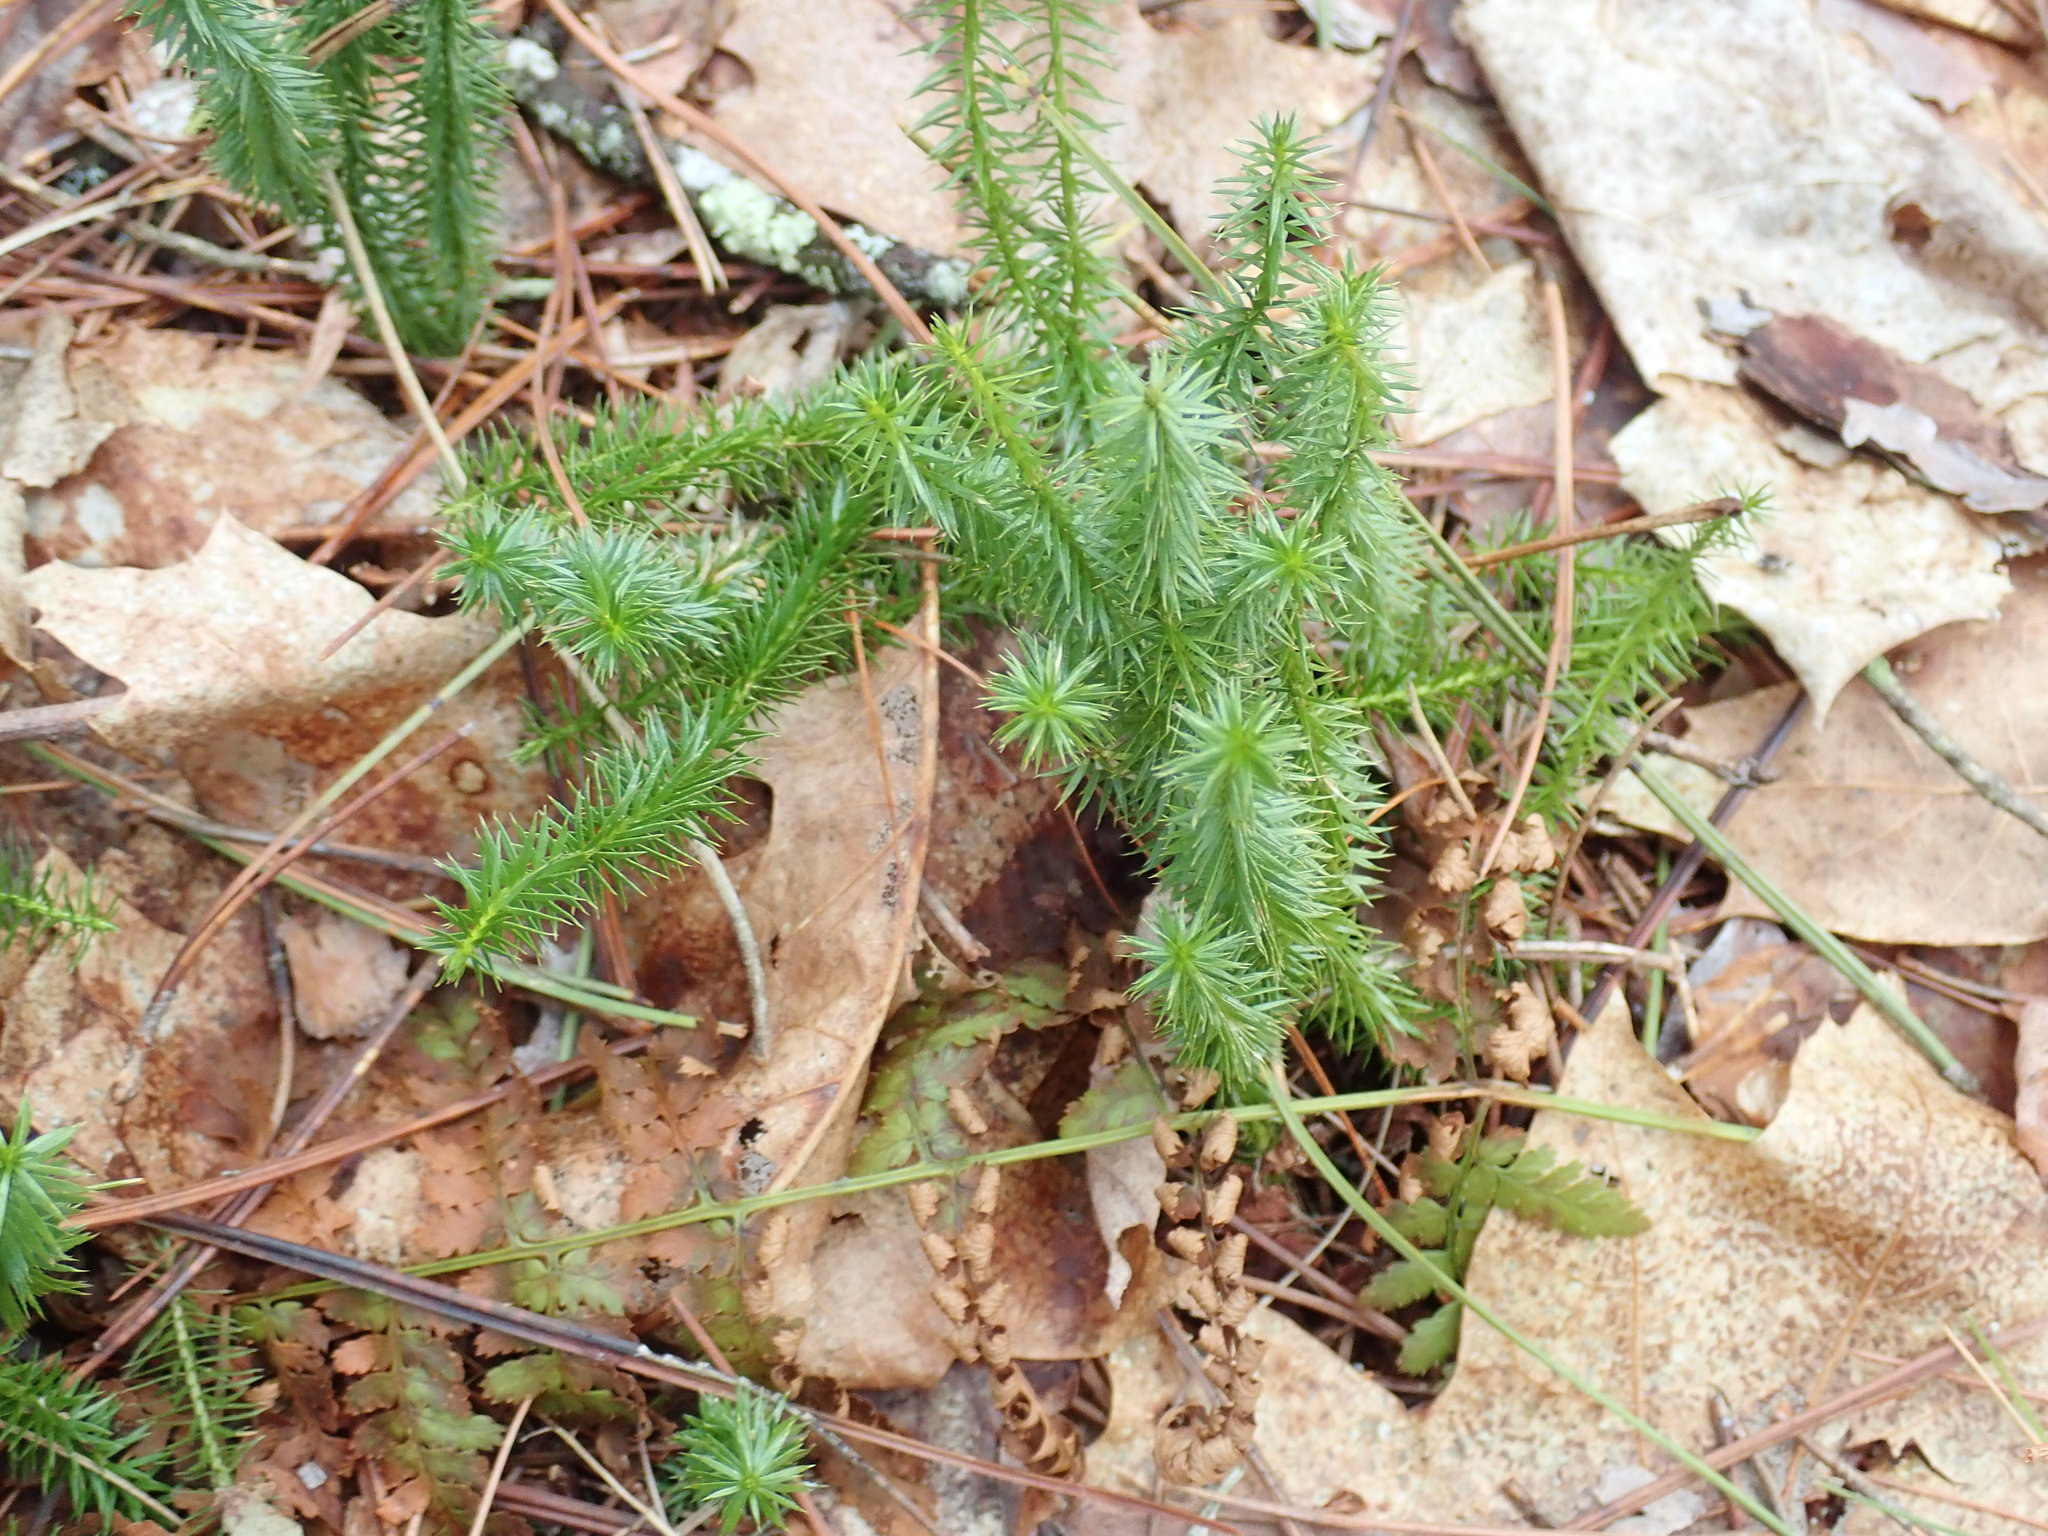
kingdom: Plantae
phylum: Tracheophyta
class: Lycopodiopsida
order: Lycopodiales
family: Lycopodiaceae
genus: Spinulum
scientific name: Spinulum annotinum
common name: Interrupted club-moss
